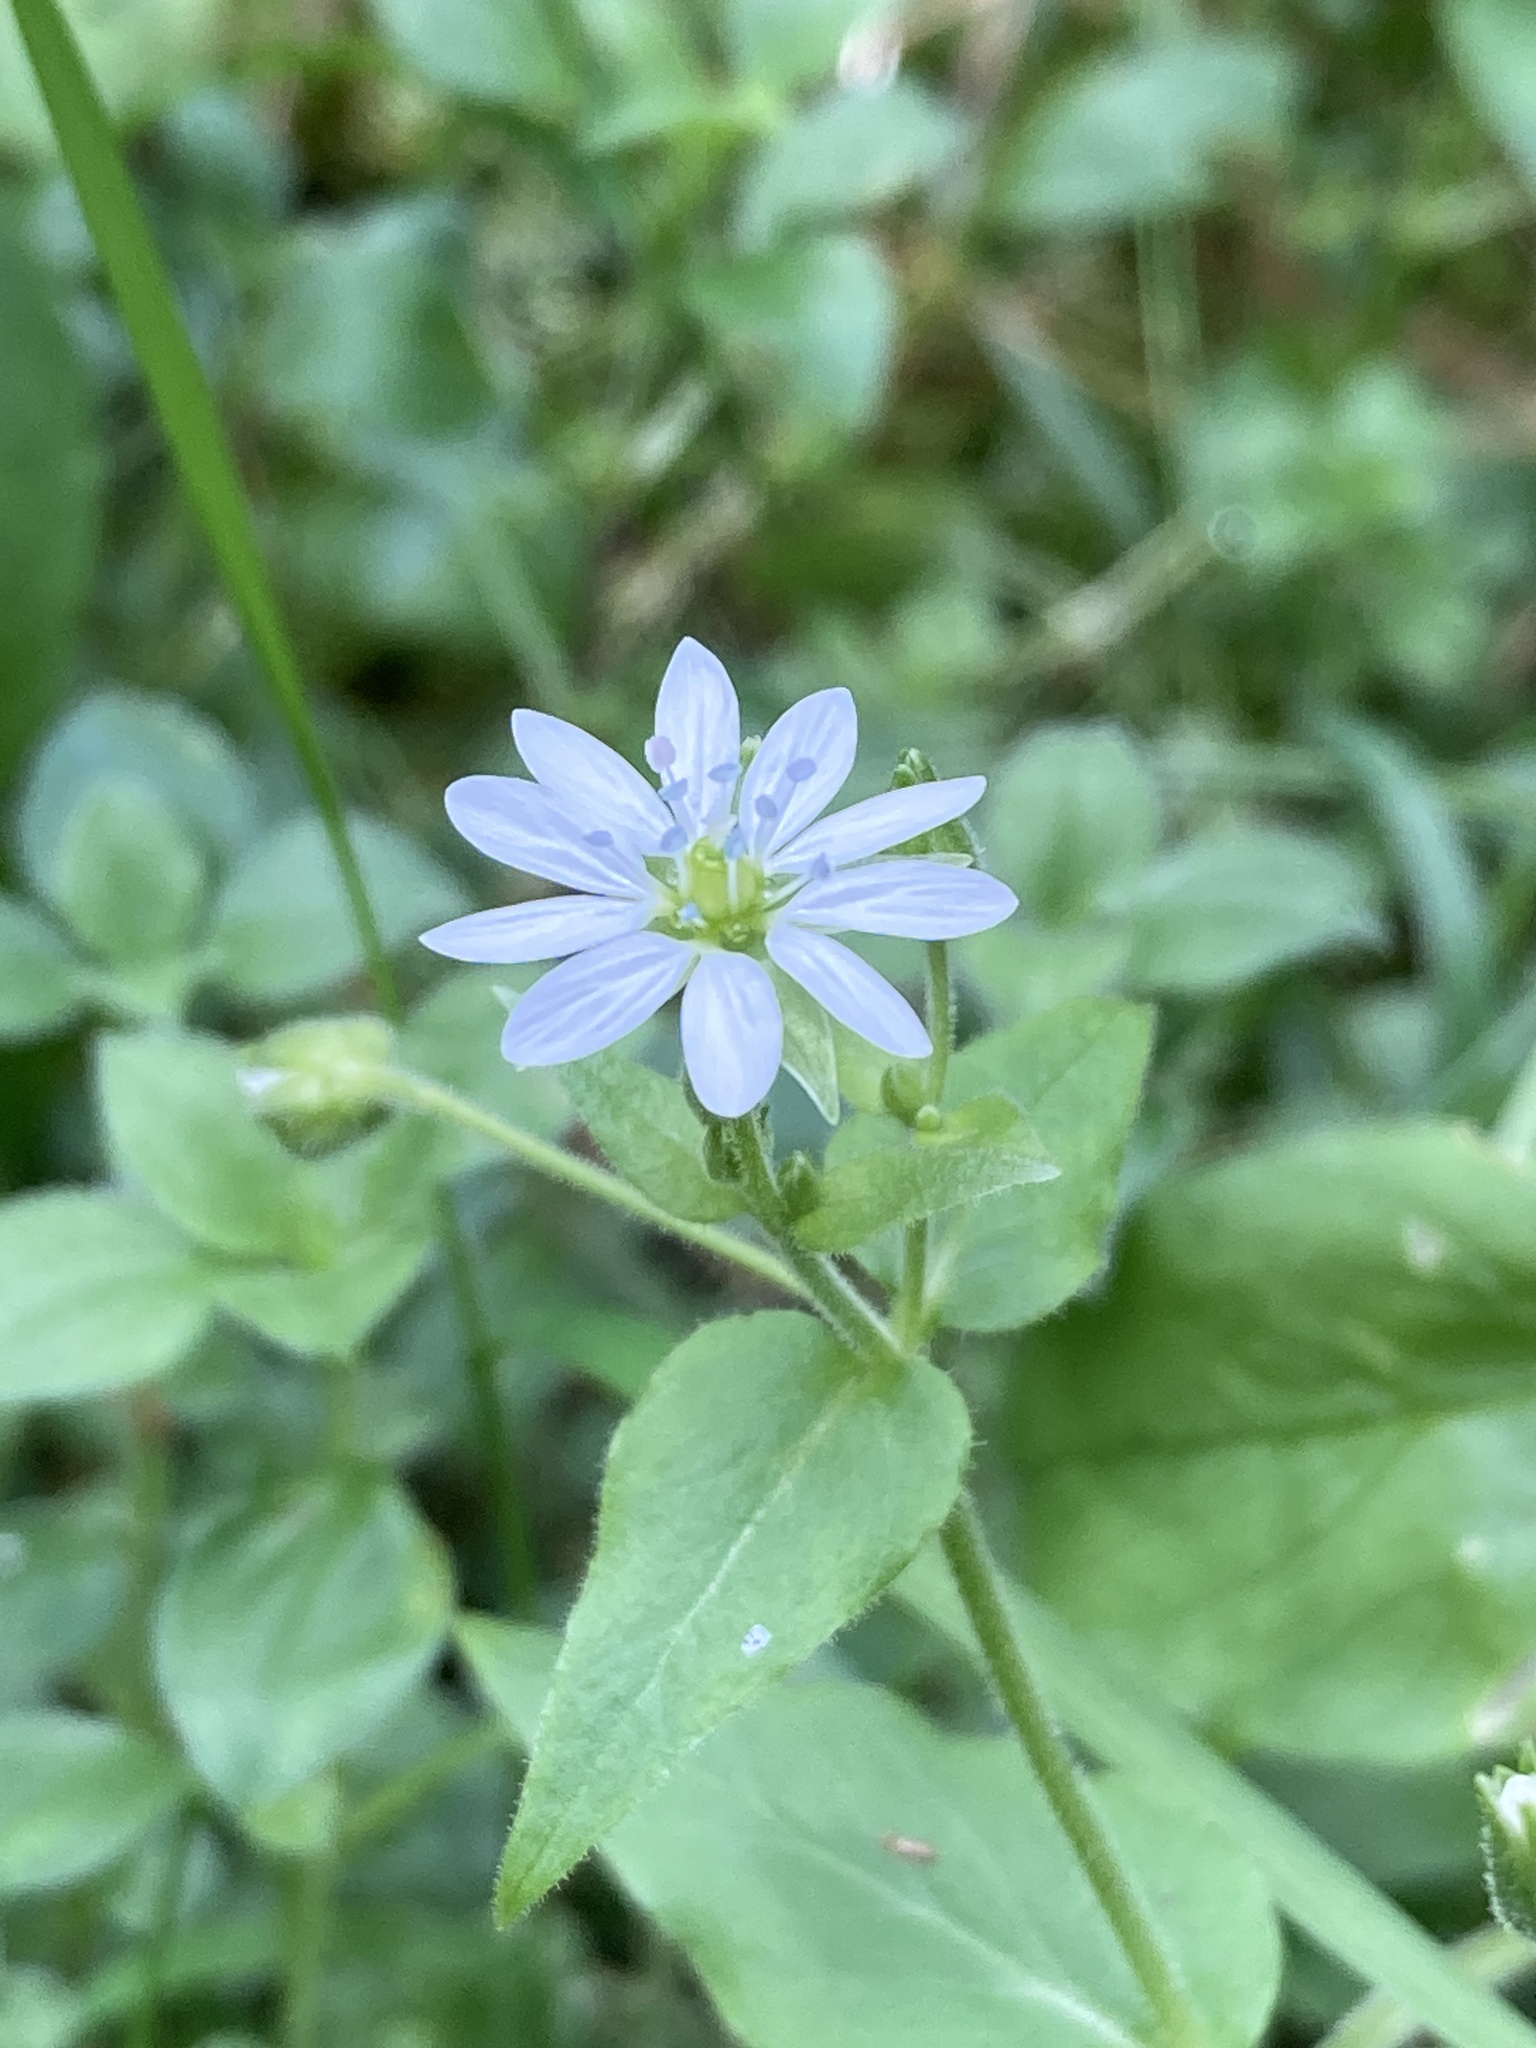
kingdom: Plantae
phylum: Tracheophyta
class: Magnoliopsida
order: Caryophyllales
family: Caryophyllaceae
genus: Stellaria
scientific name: Stellaria aquatica
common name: Water chickweed
